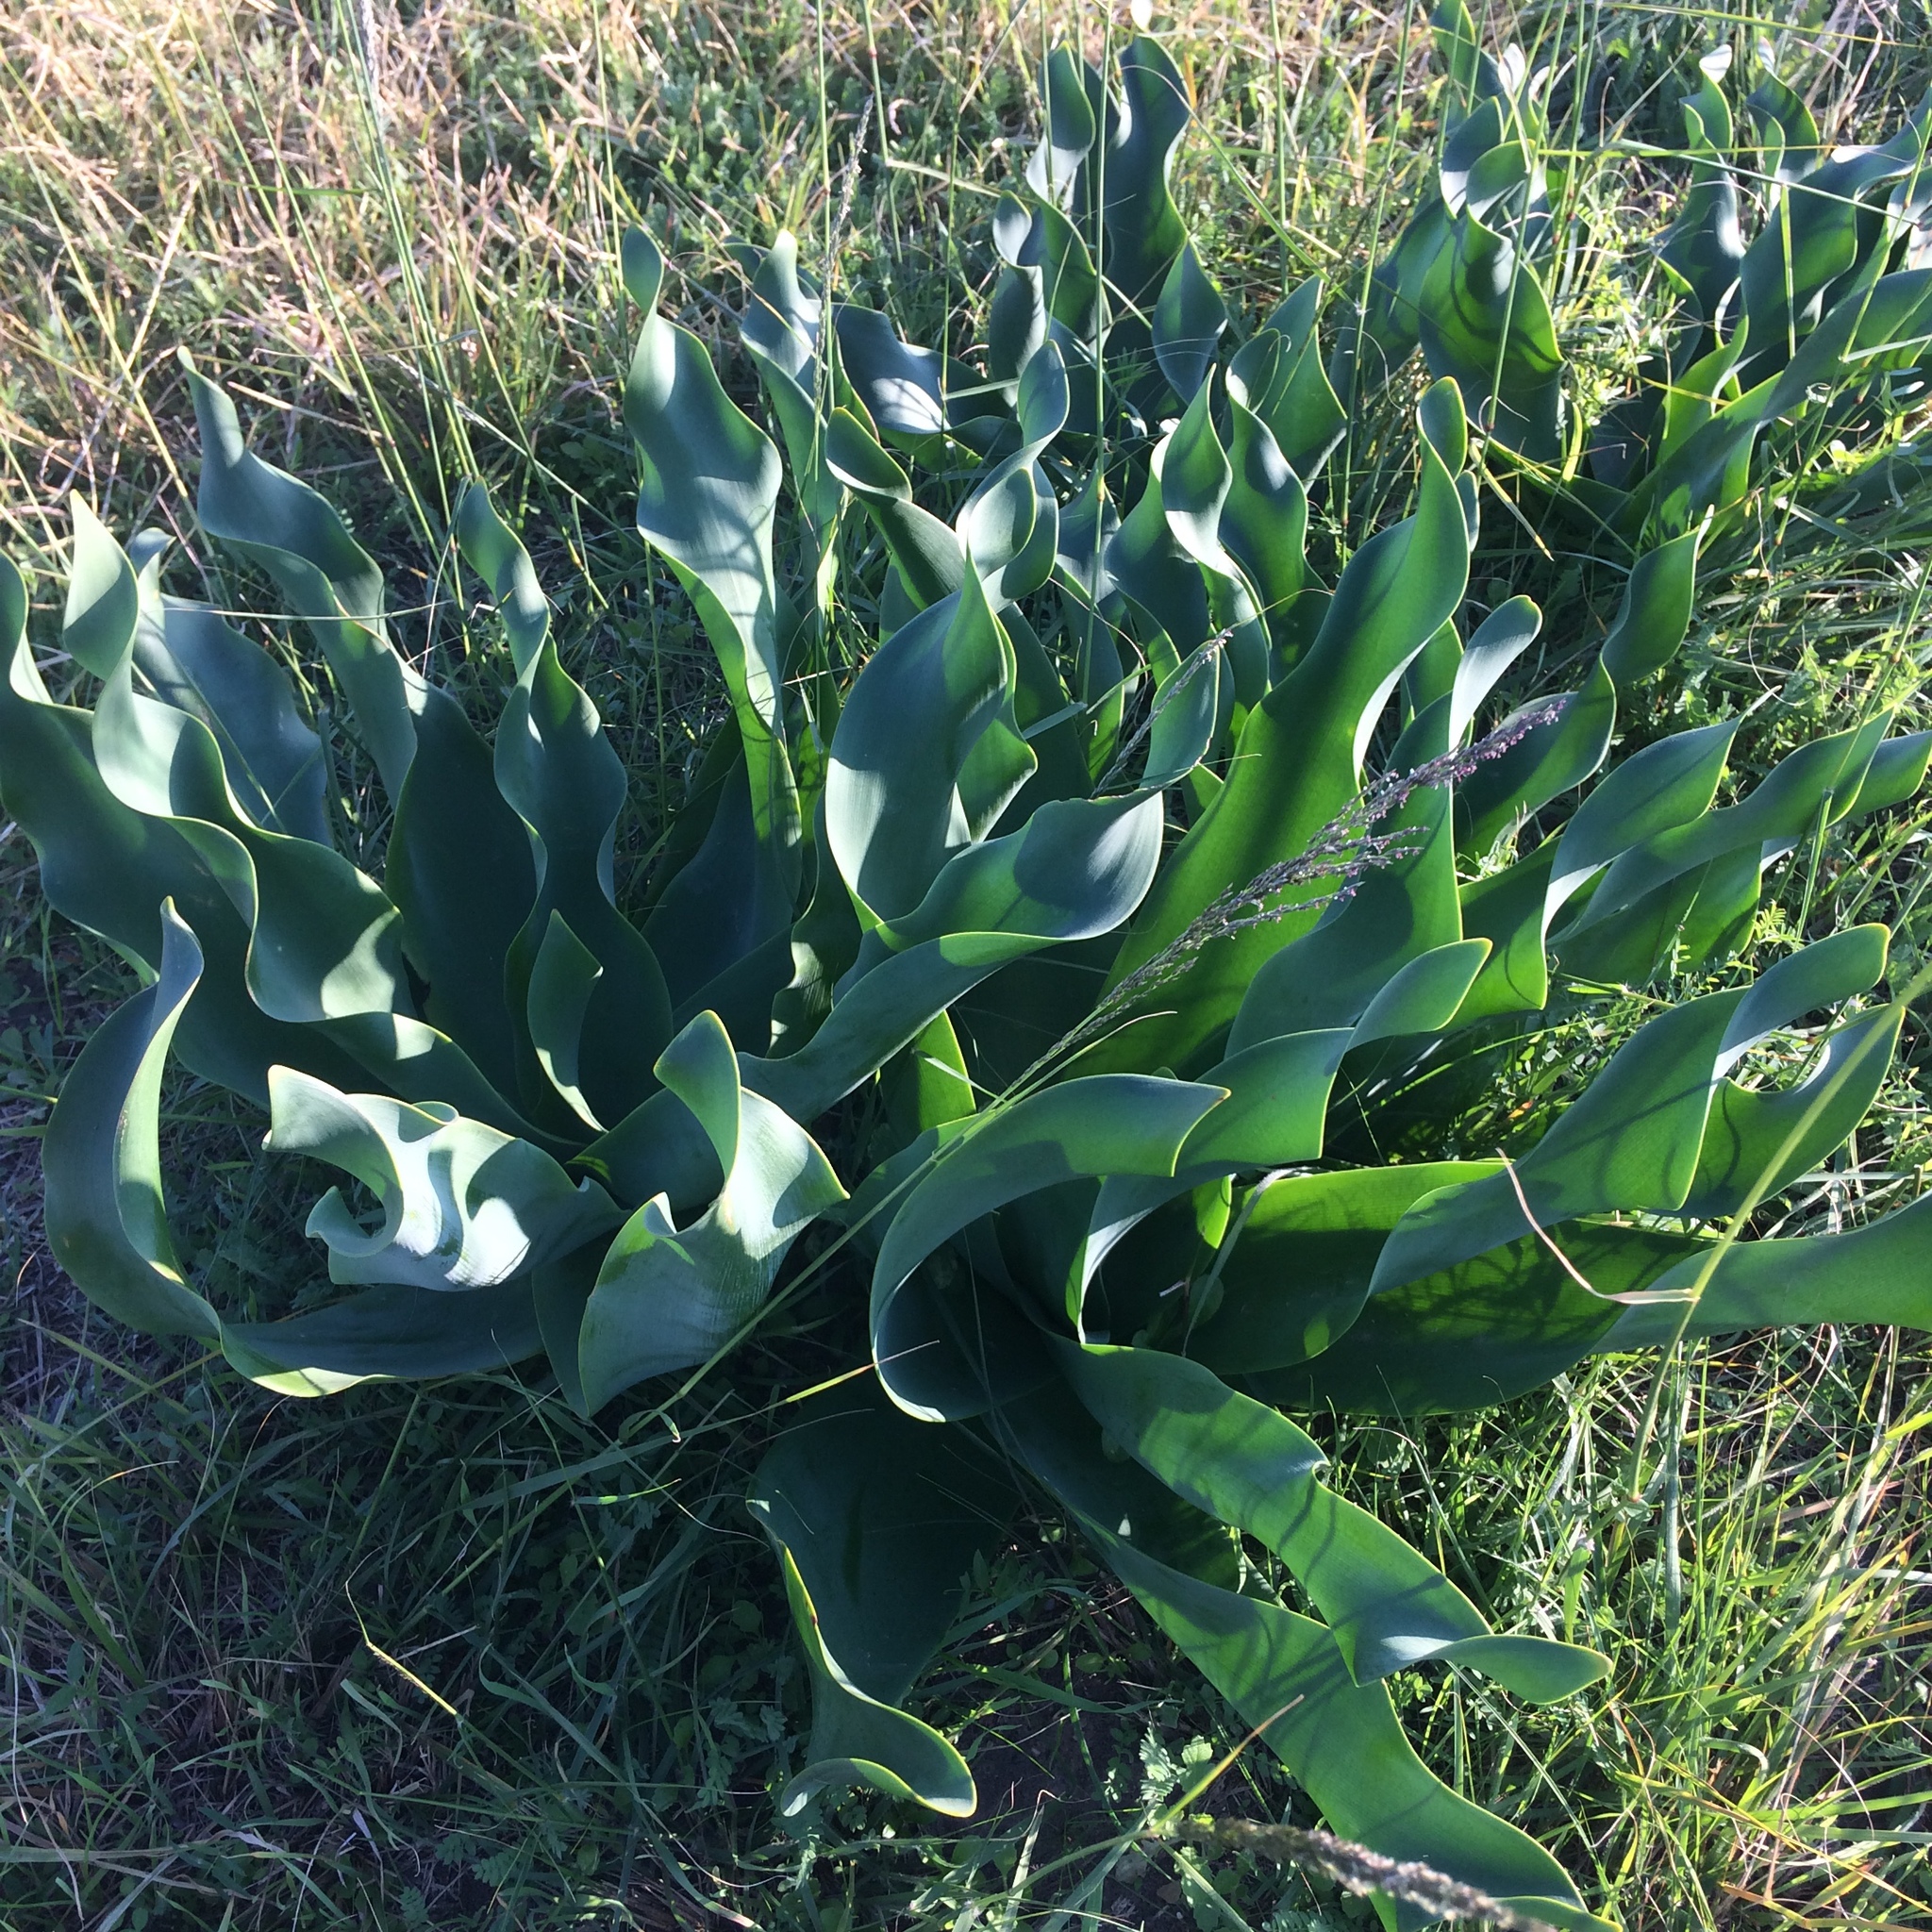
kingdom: Plantae
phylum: Tracheophyta
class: Liliopsida
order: Asparagales
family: Amaryllidaceae
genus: Brunsvigia
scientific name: Brunsvigia litoralis
